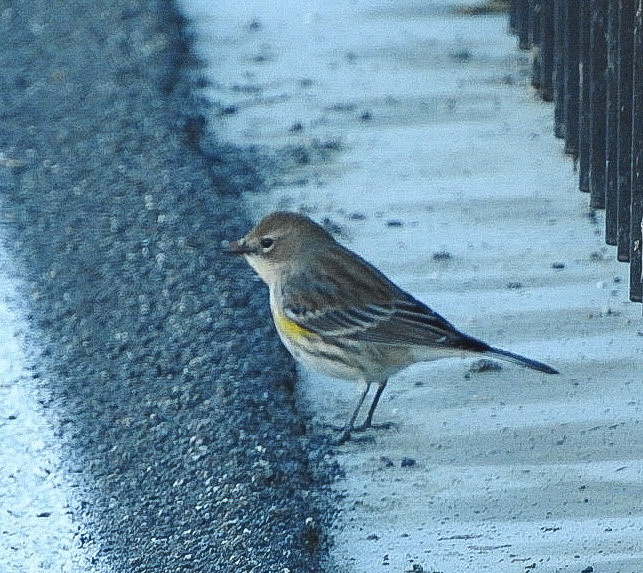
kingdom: Animalia
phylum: Chordata
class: Aves
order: Passeriformes
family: Parulidae
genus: Setophaga
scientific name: Setophaga coronata
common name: Myrtle warbler
